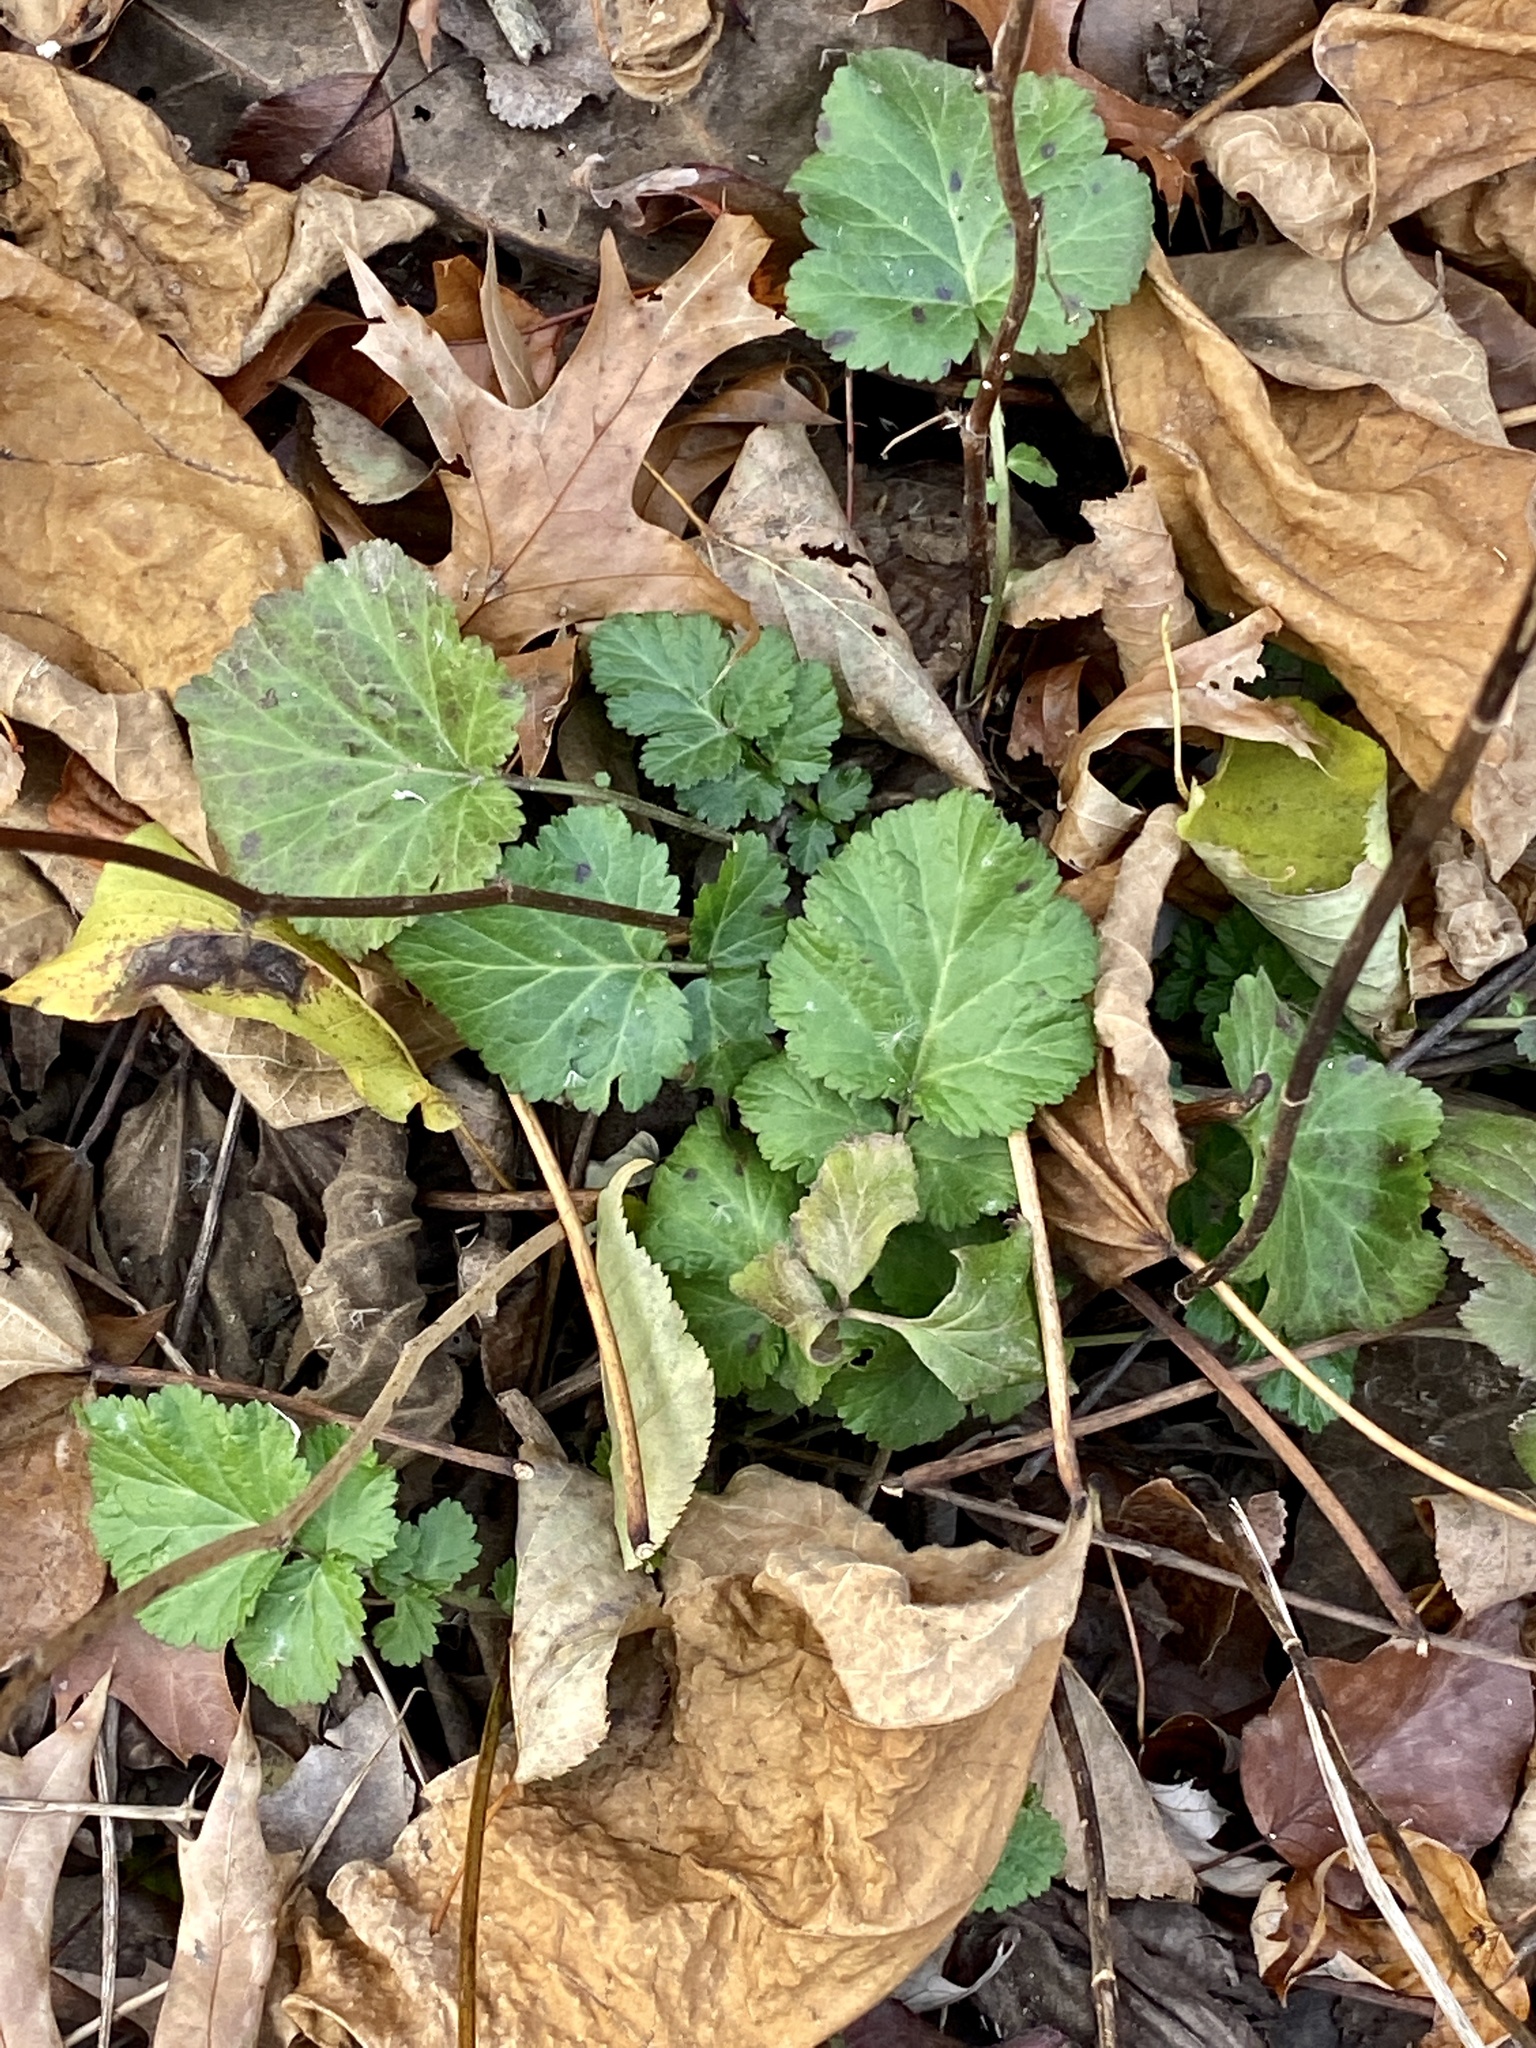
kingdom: Plantae
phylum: Tracheophyta
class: Magnoliopsida
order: Rosales
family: Rosaceae
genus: Geum
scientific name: Geum canadense
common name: White avens
